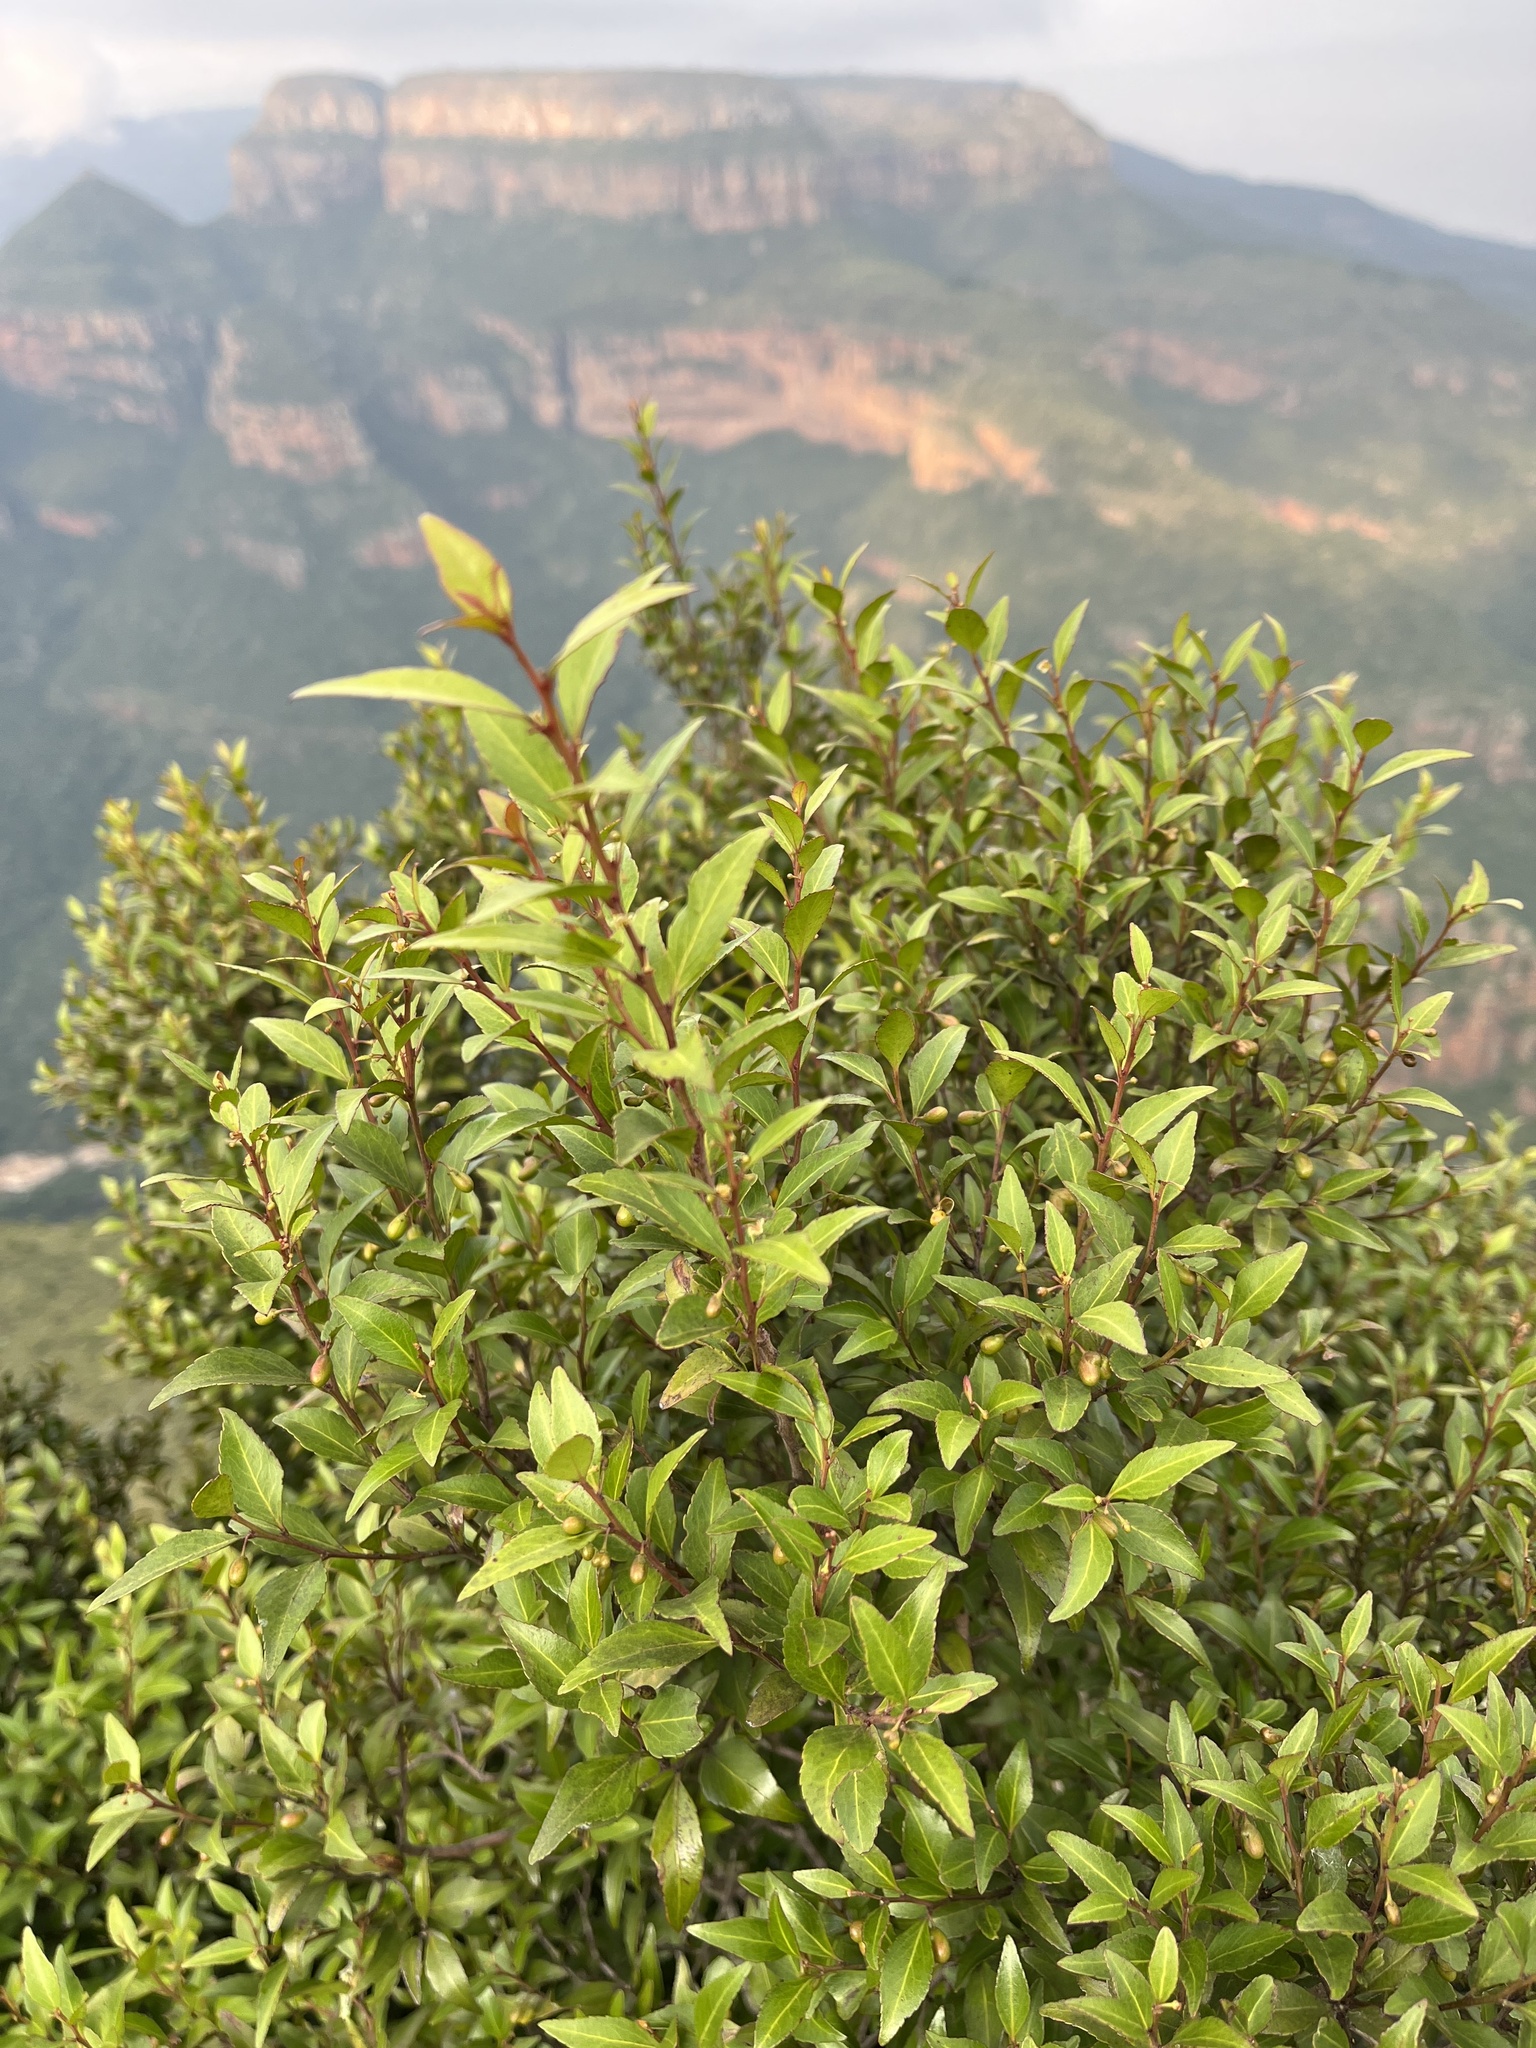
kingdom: Plantae
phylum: Tracheophyta
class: Magnoliopsida
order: Celastrales
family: Celastraceae
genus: Gymnosporia
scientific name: Gymnosporia acuminata
